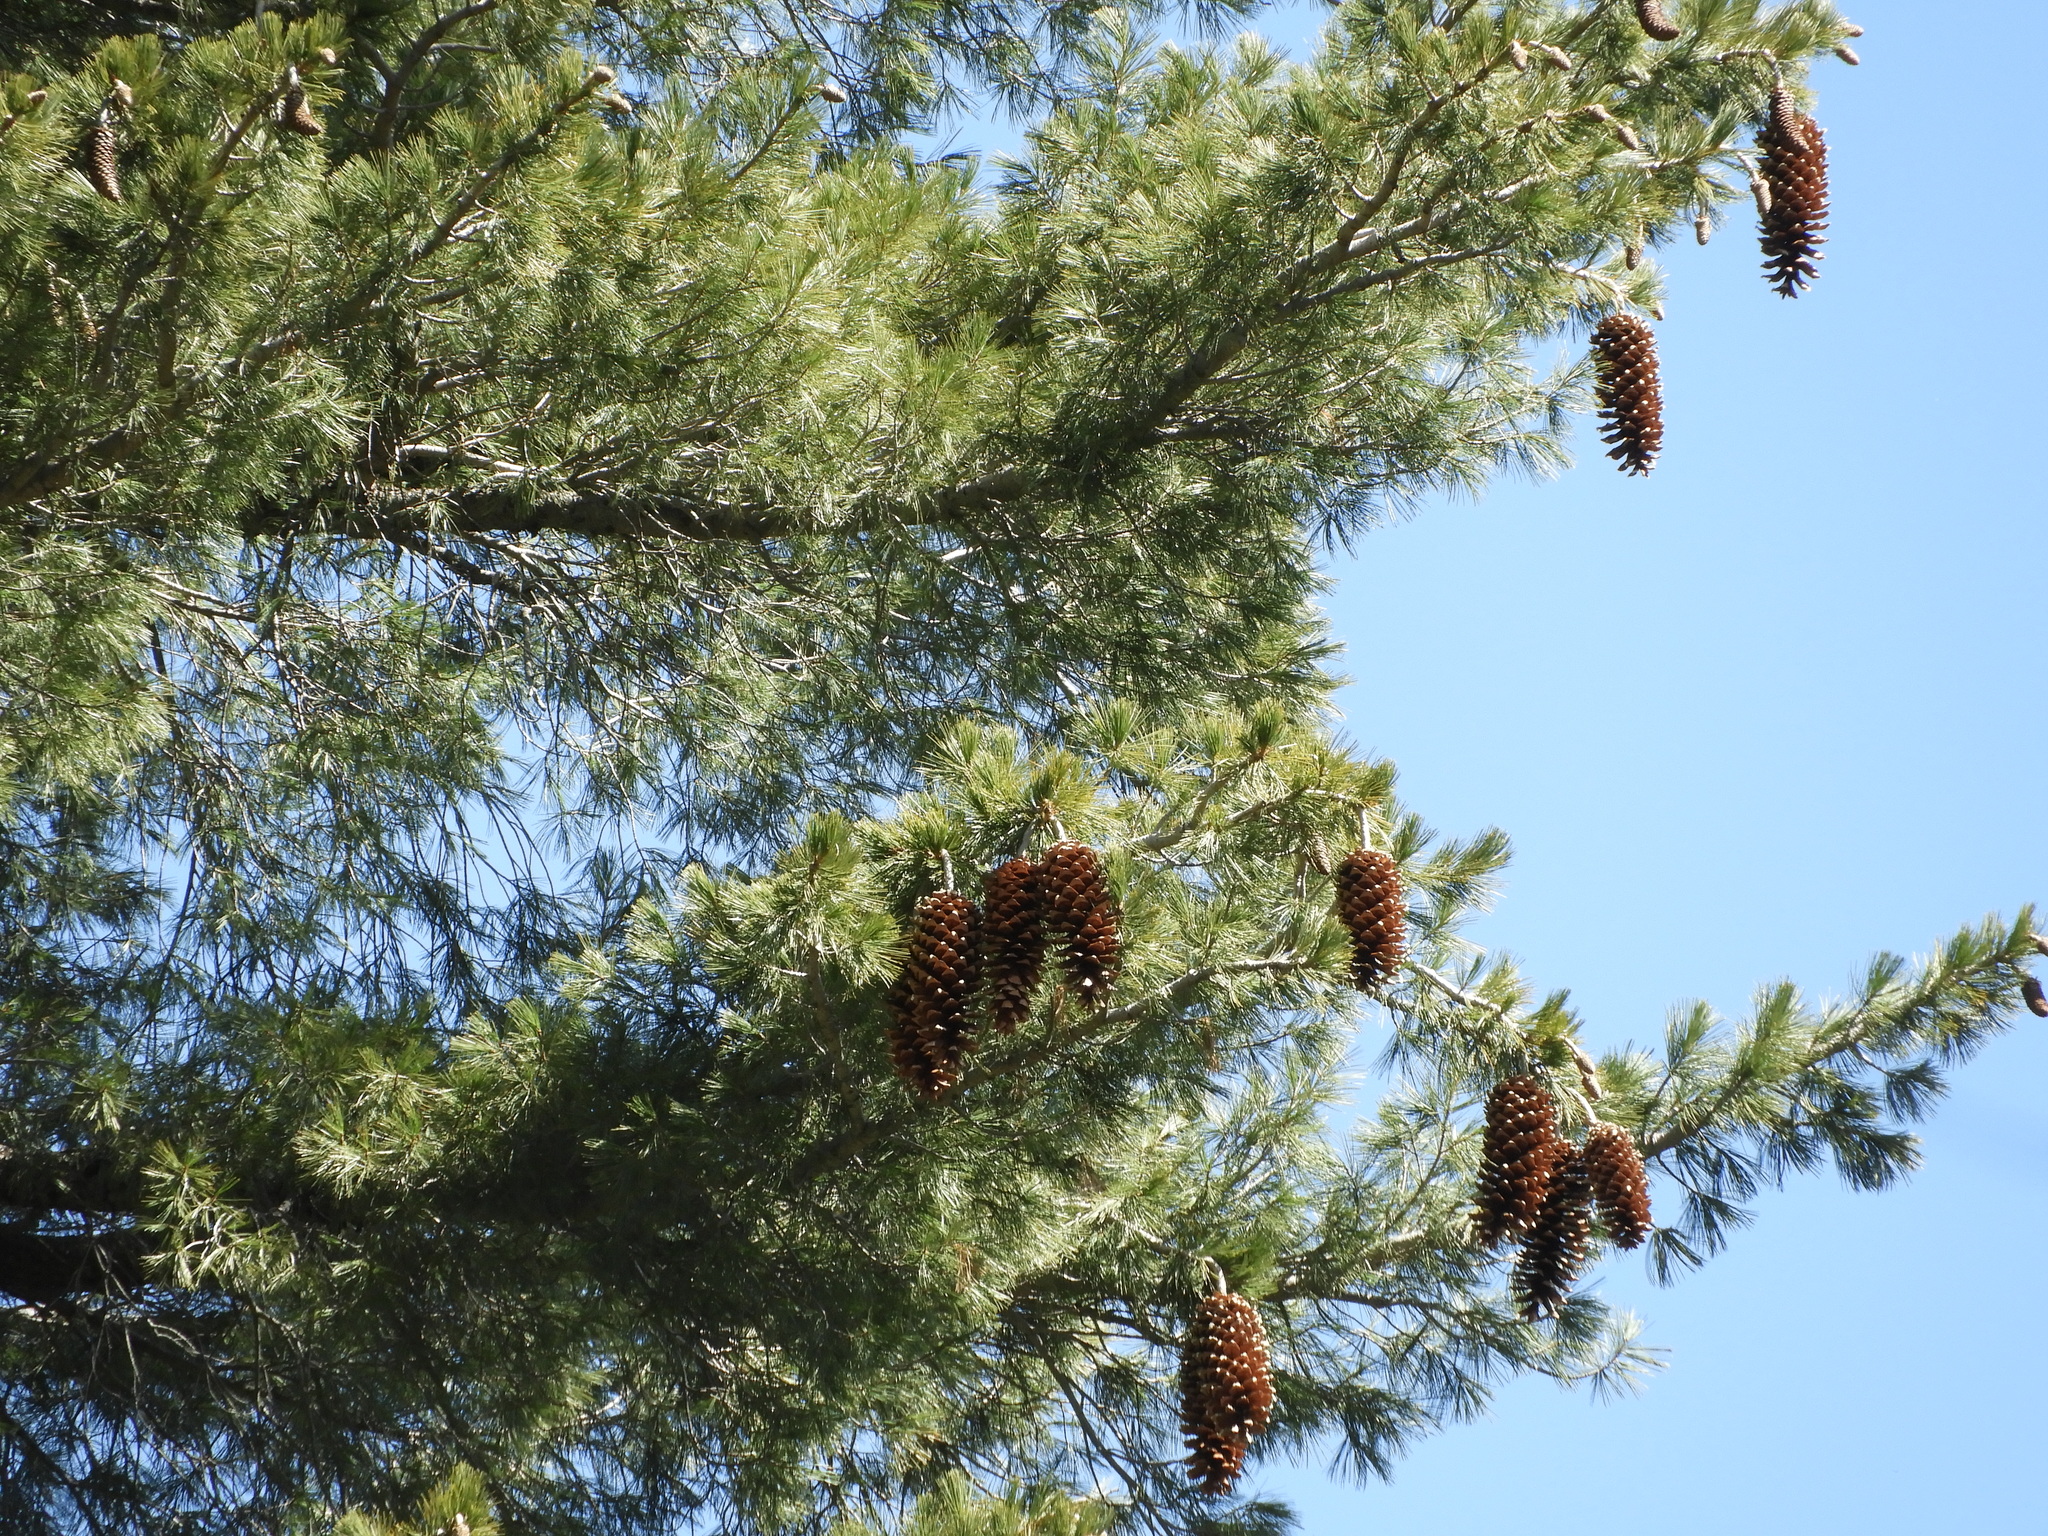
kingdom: Plantae
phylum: Tracheophyta
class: Pinopsida
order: Pinales
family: Pinaceae
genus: Pinus
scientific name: Pinus lambertiana
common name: Sugar pine
